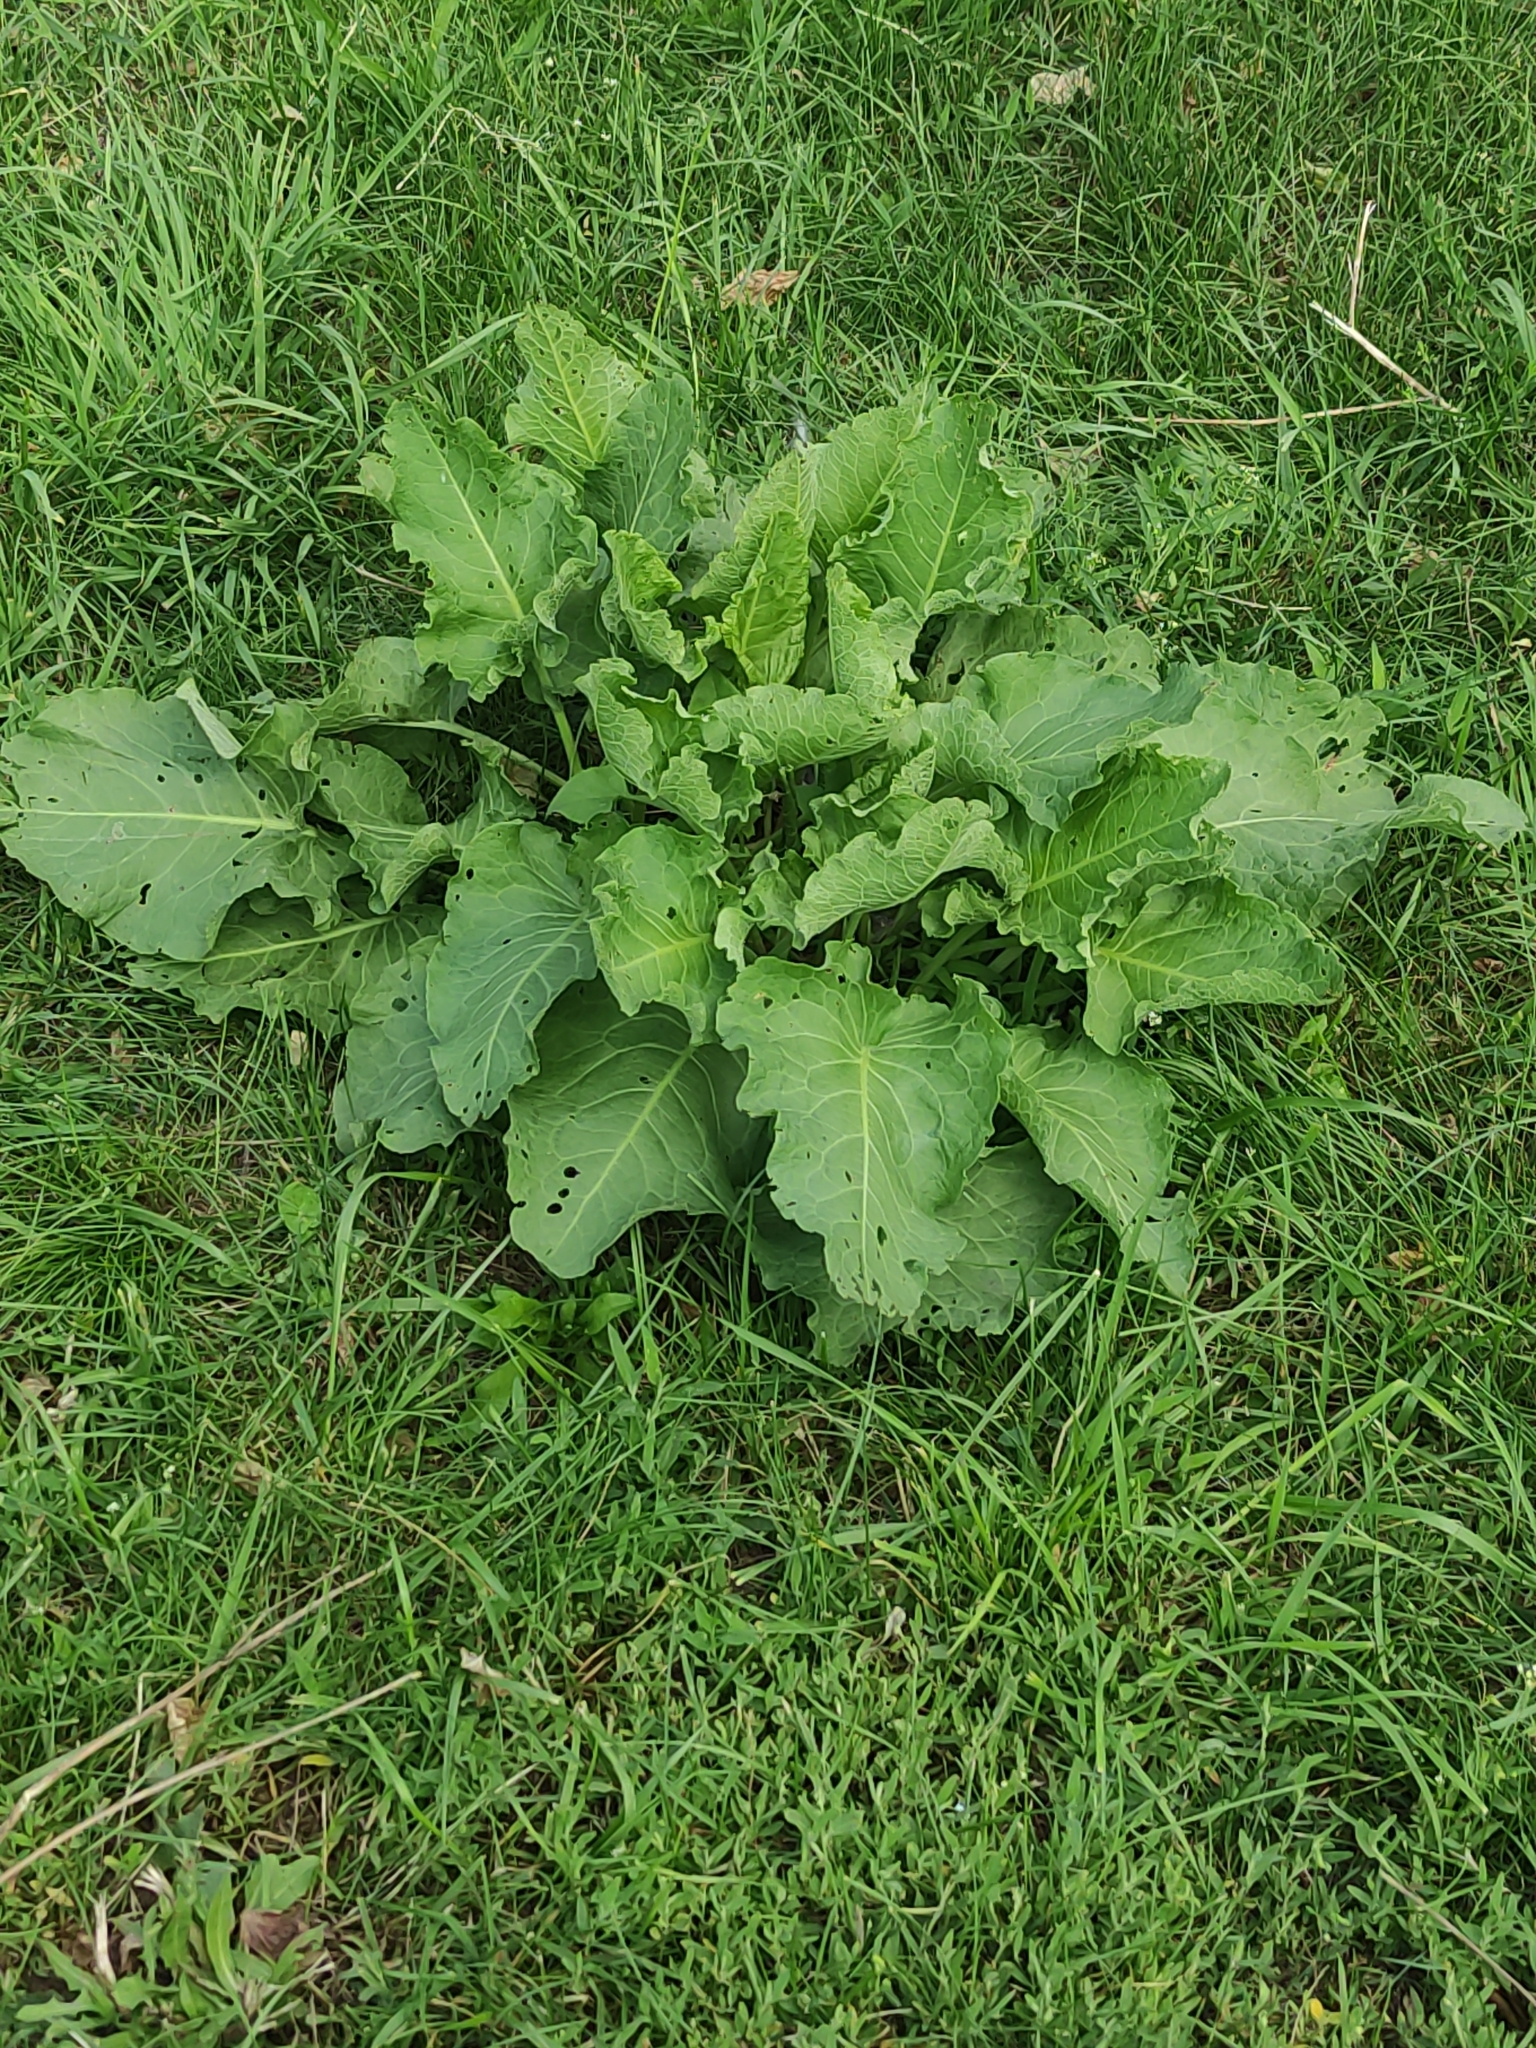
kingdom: Plantae
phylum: Tracheophyta
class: Magnoliopsida
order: Caryophyllales
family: Polygonaceae
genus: Rumex
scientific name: Rumex confertus
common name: Russian dock
